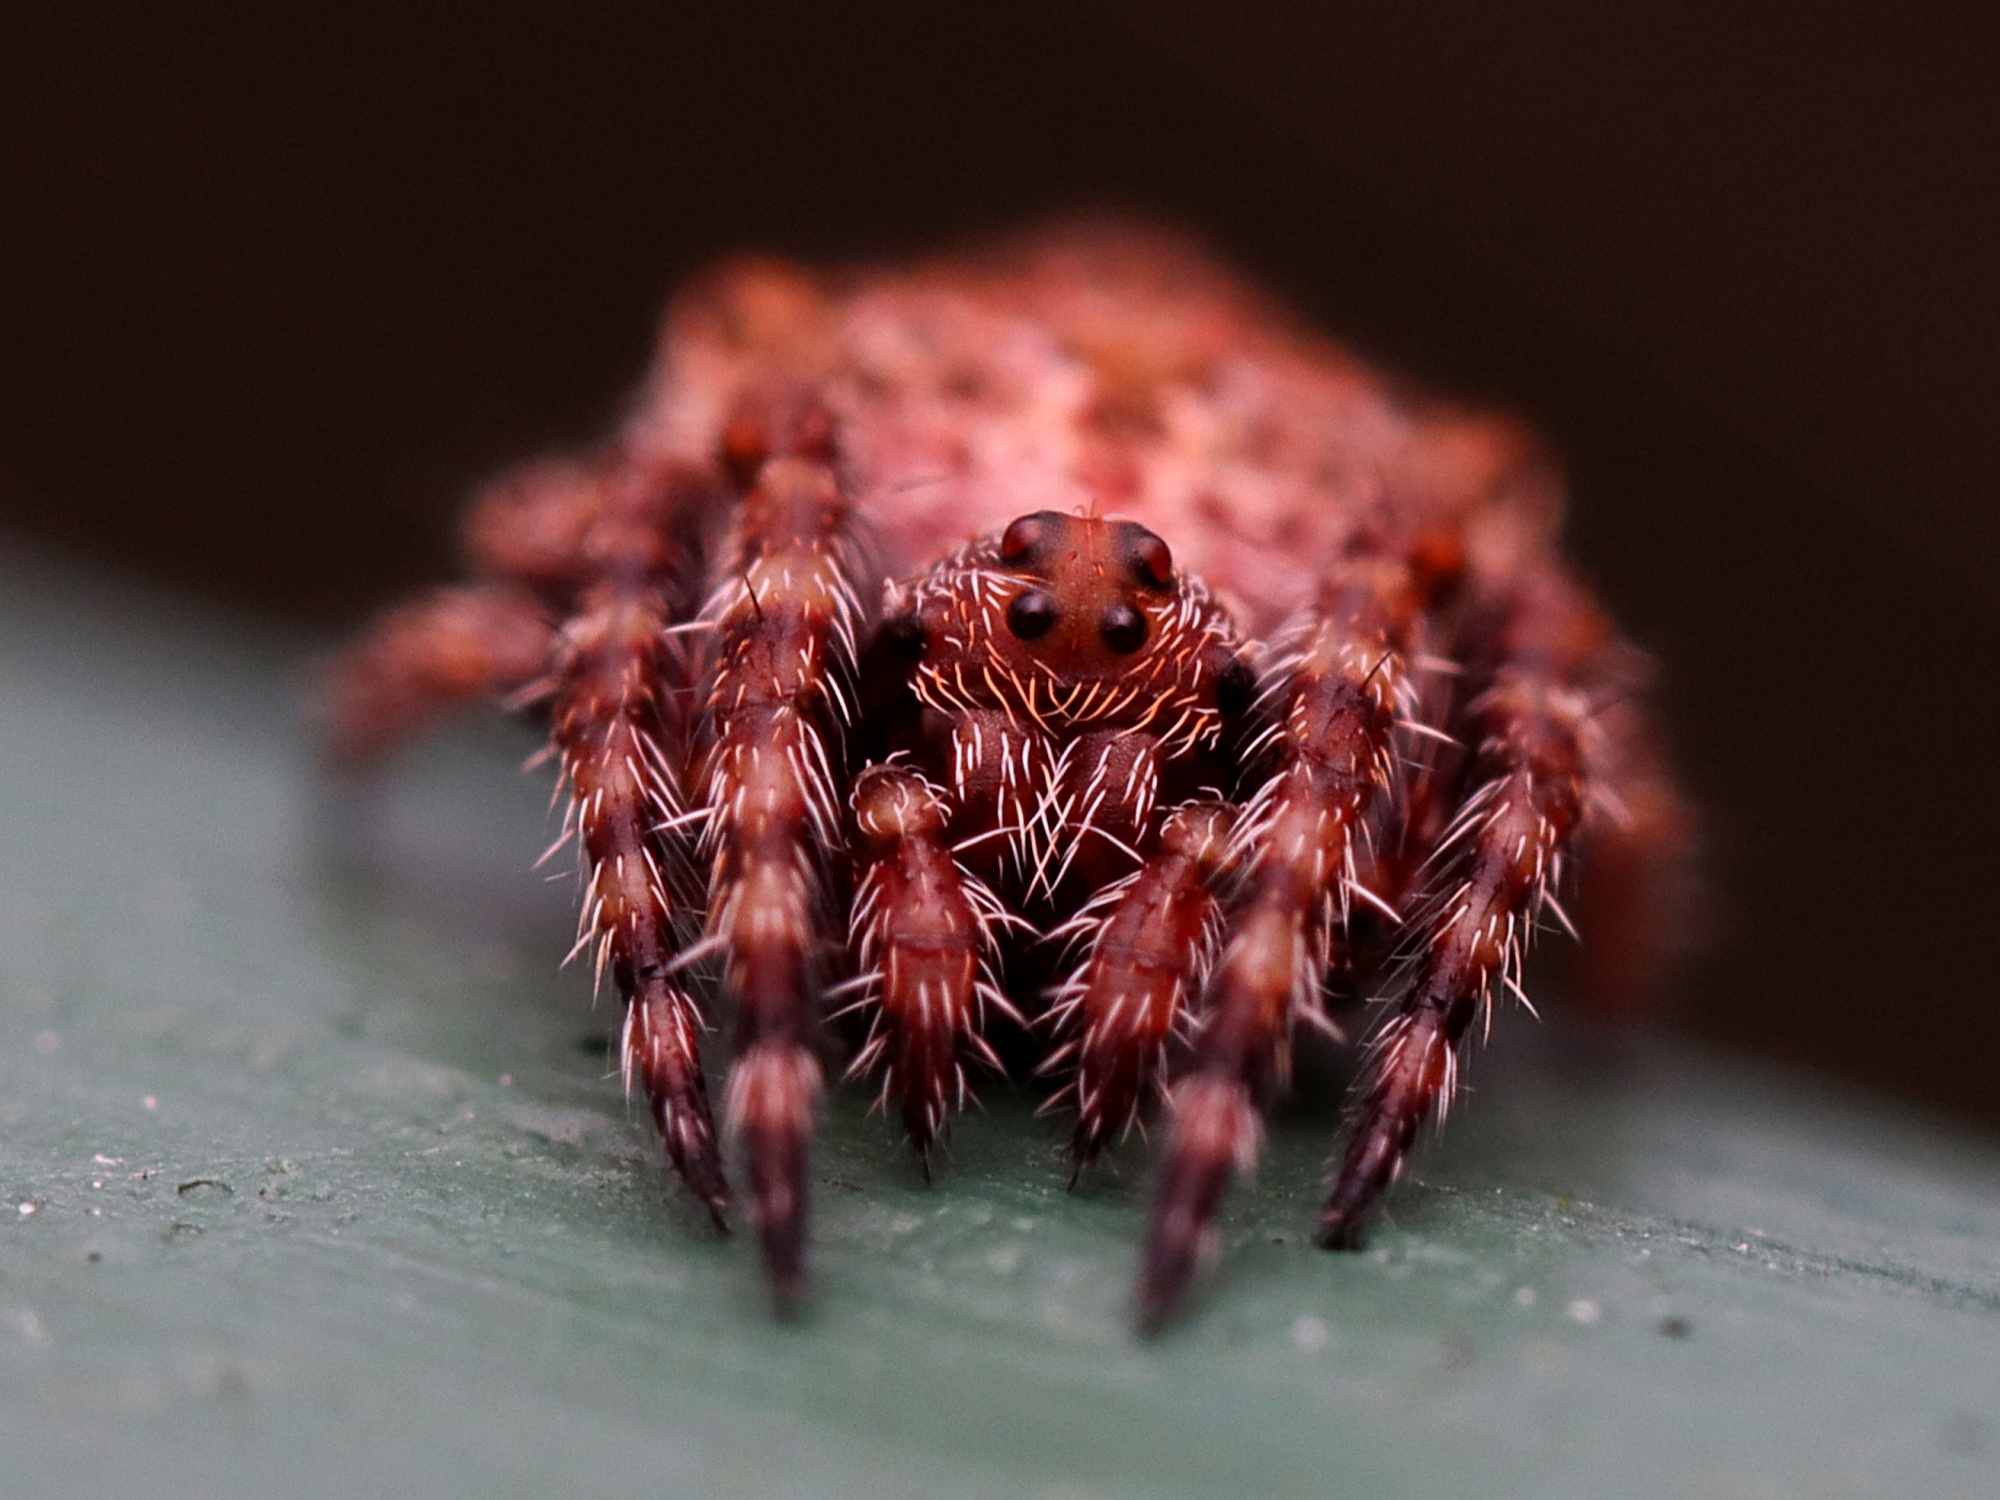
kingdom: Animalia
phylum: Arthropoda
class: Arachnida
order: Araneae
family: Araneidae
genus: Eriophora
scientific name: Eriophora pustulosa
